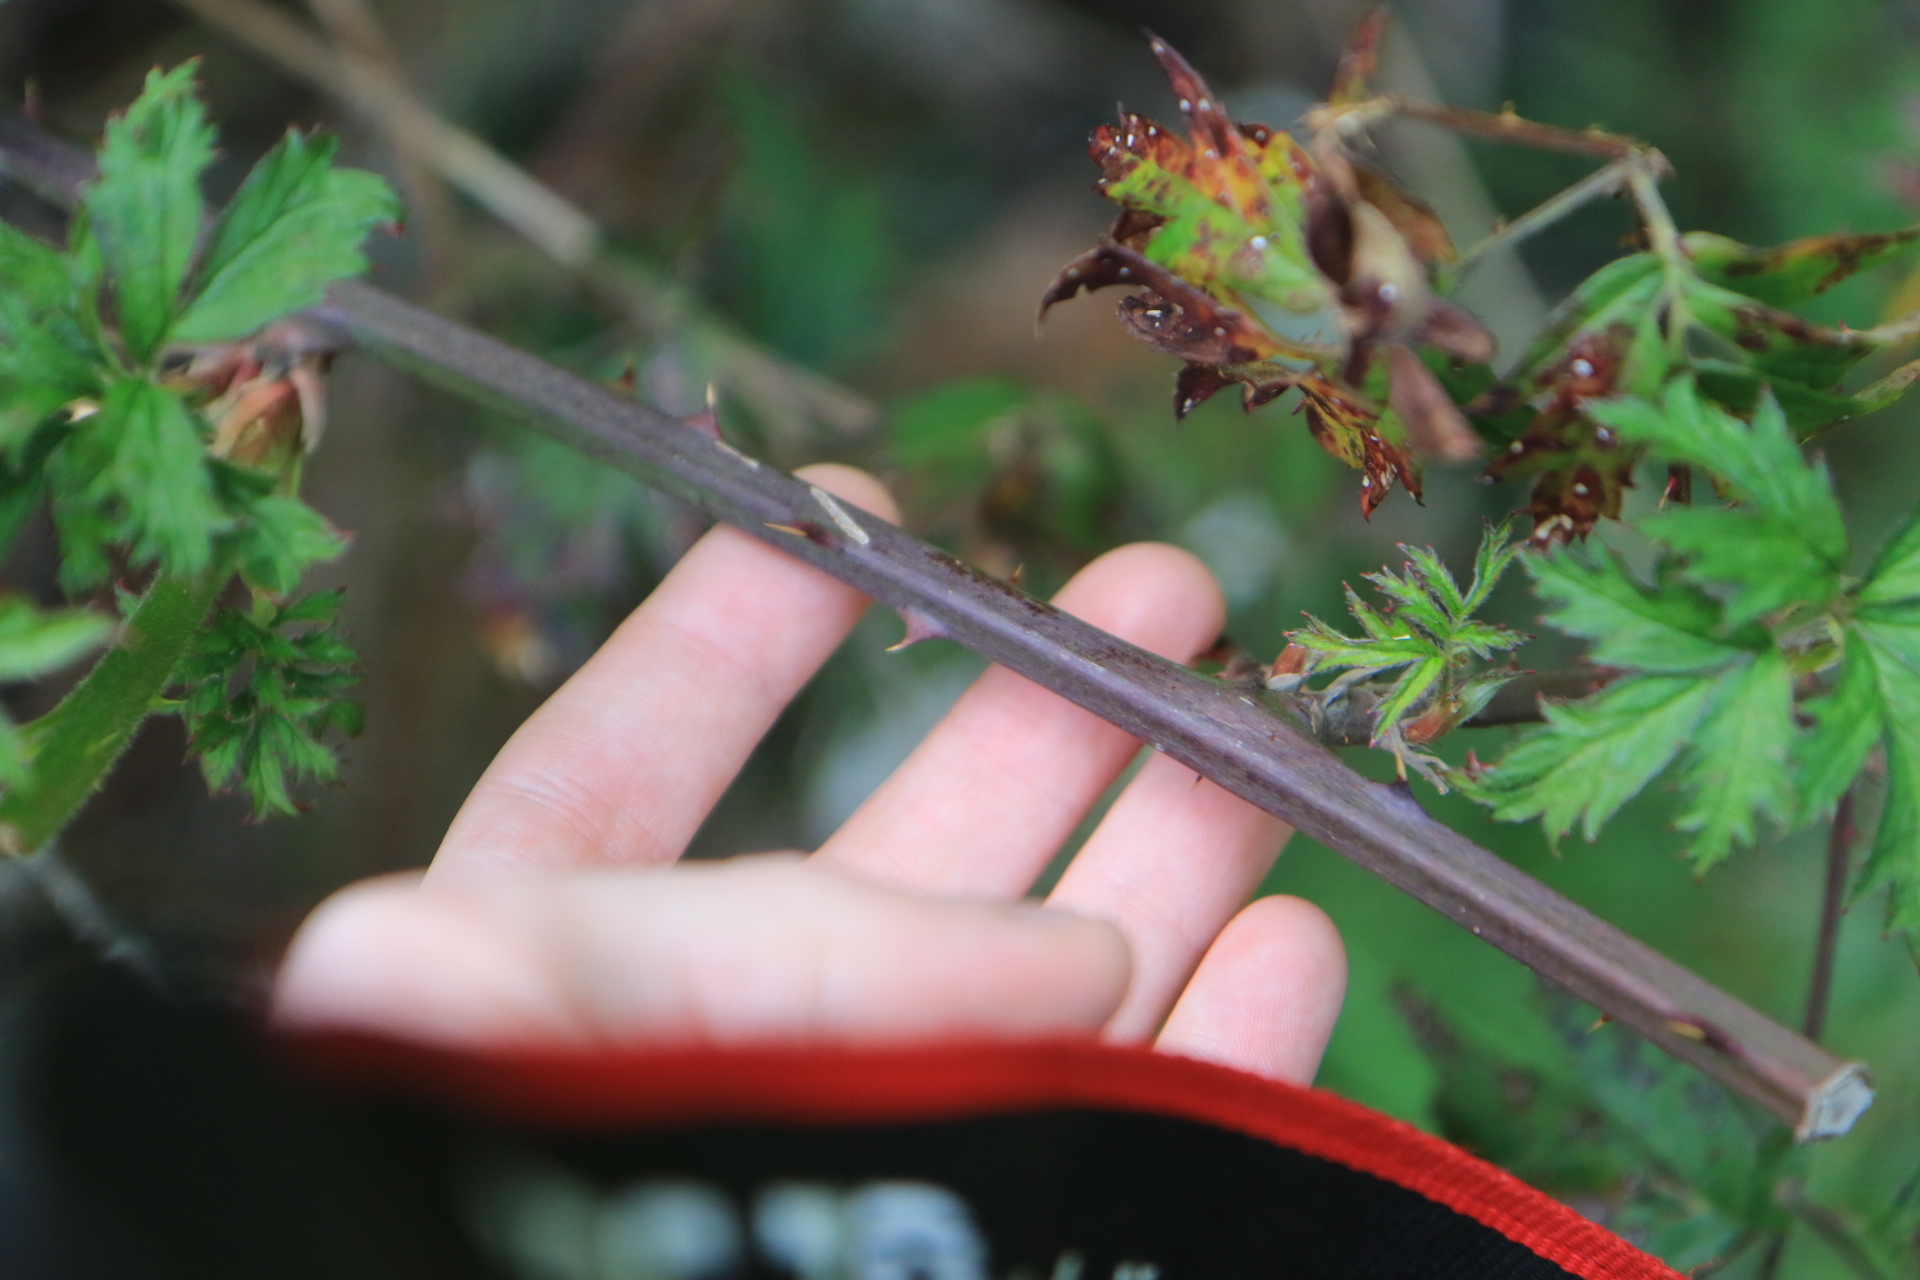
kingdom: Plantae
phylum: Tracheophyta
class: Magnoliopsida
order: Rosales
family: Rosaceae
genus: Rubus
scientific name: Rubus laciniatus
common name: Evergreen blackberry
